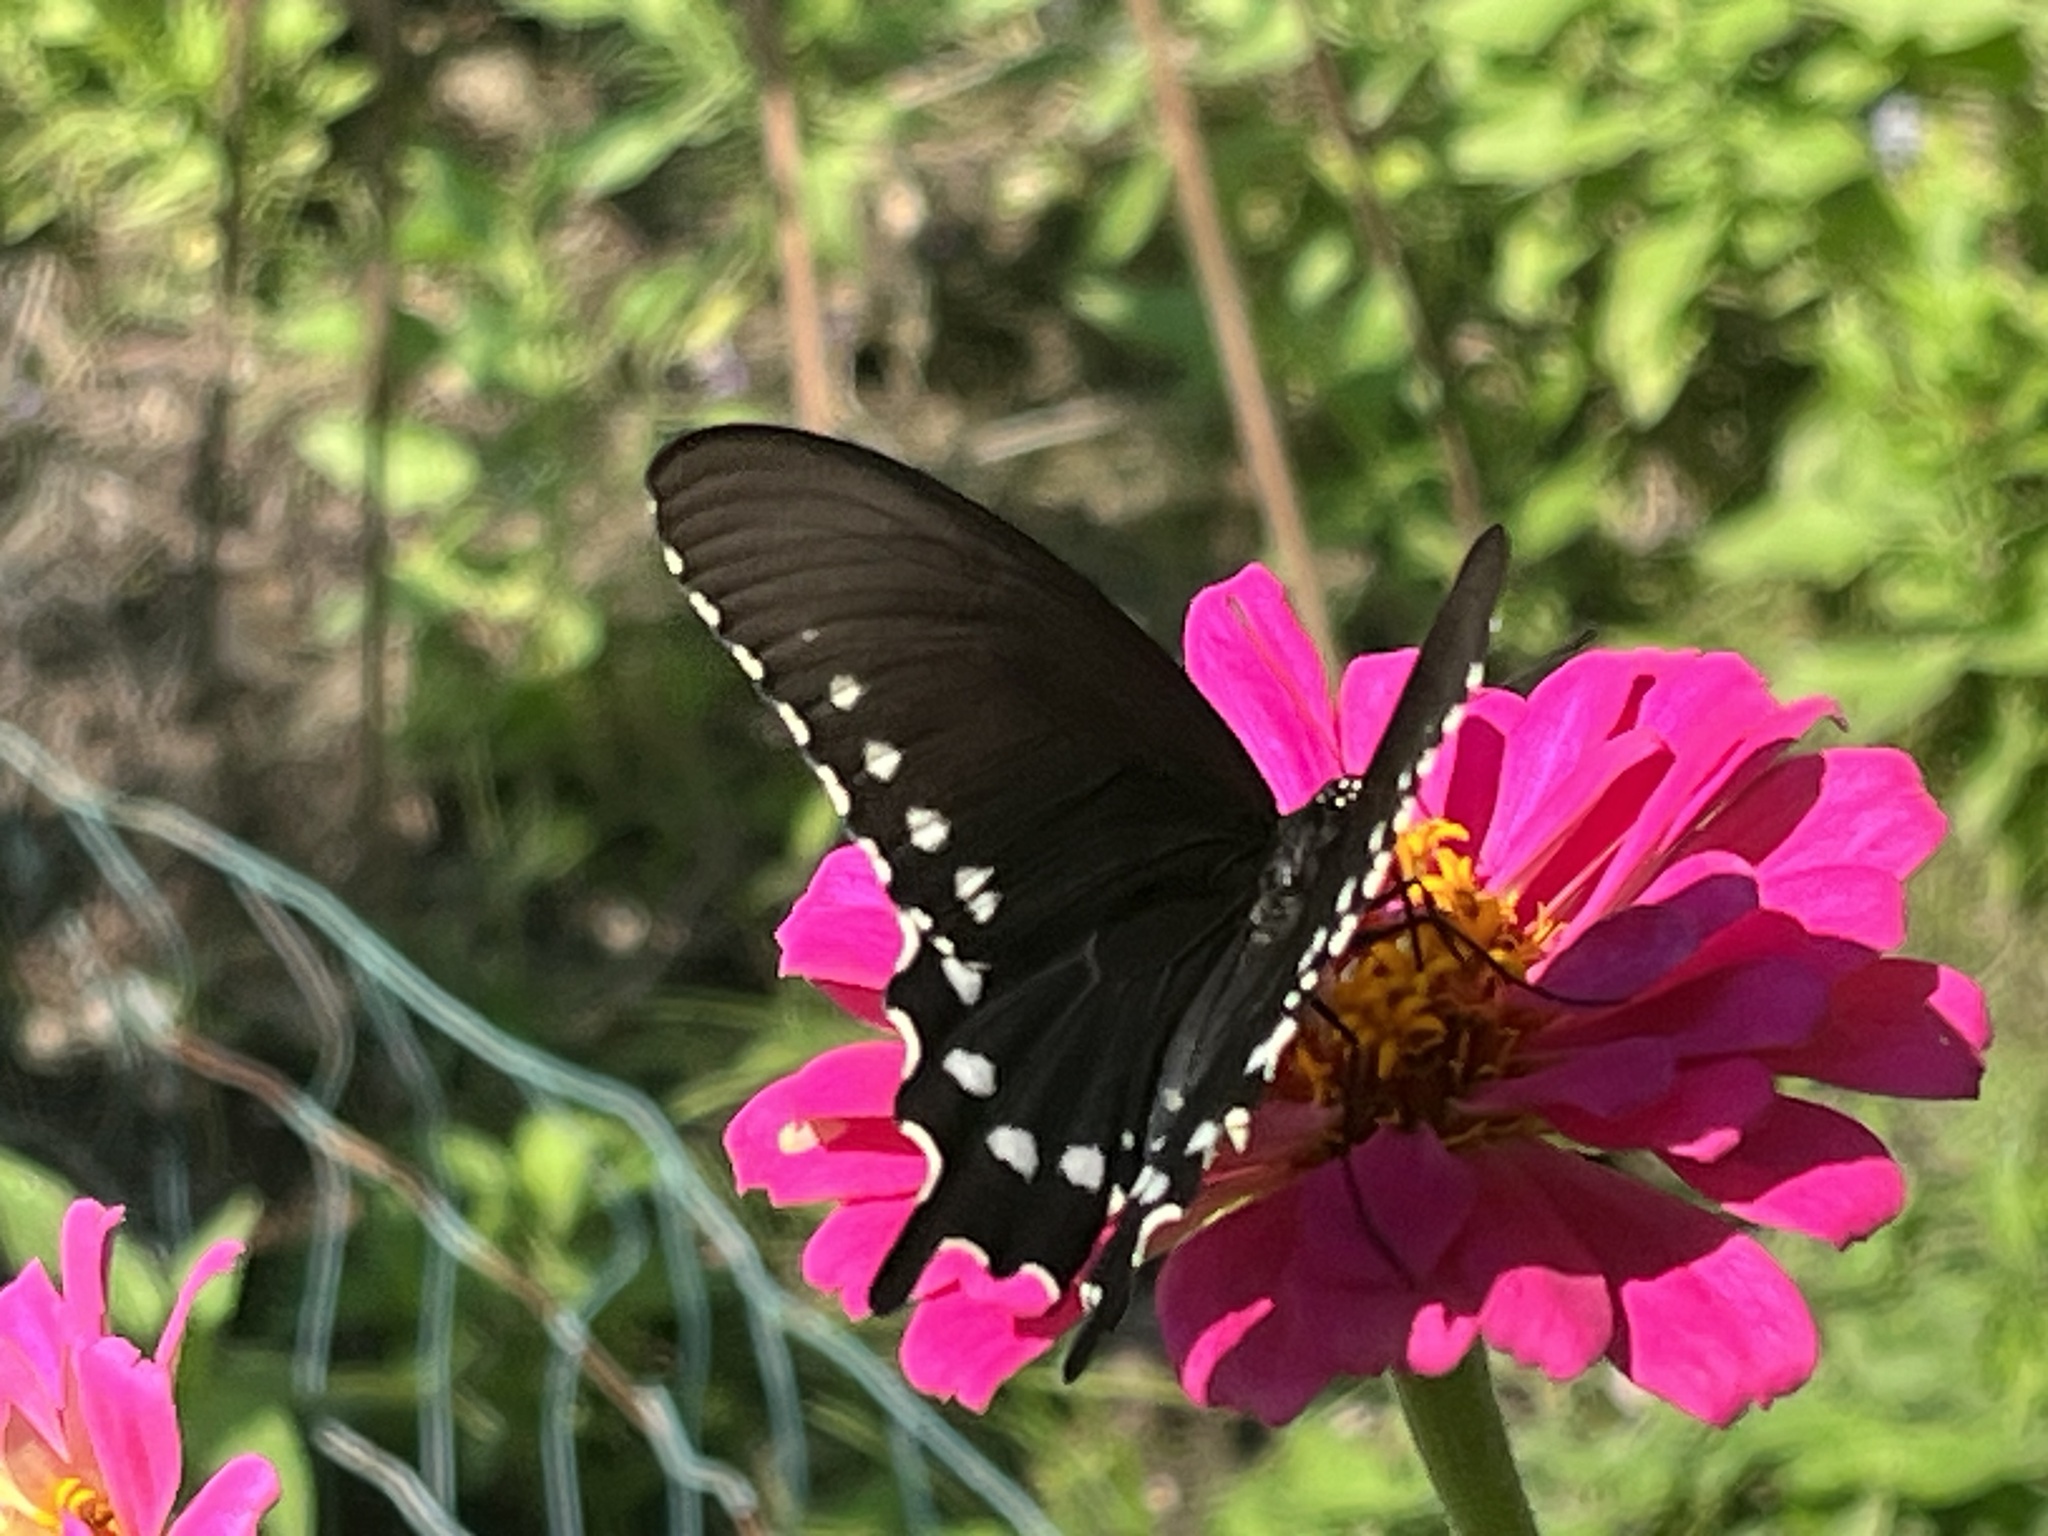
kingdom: Animalia
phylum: Arthropoda
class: Insecta
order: Lepidoptera
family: Papilionidae
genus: Battus
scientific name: Battus philenor
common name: Pipevine swallowtail
